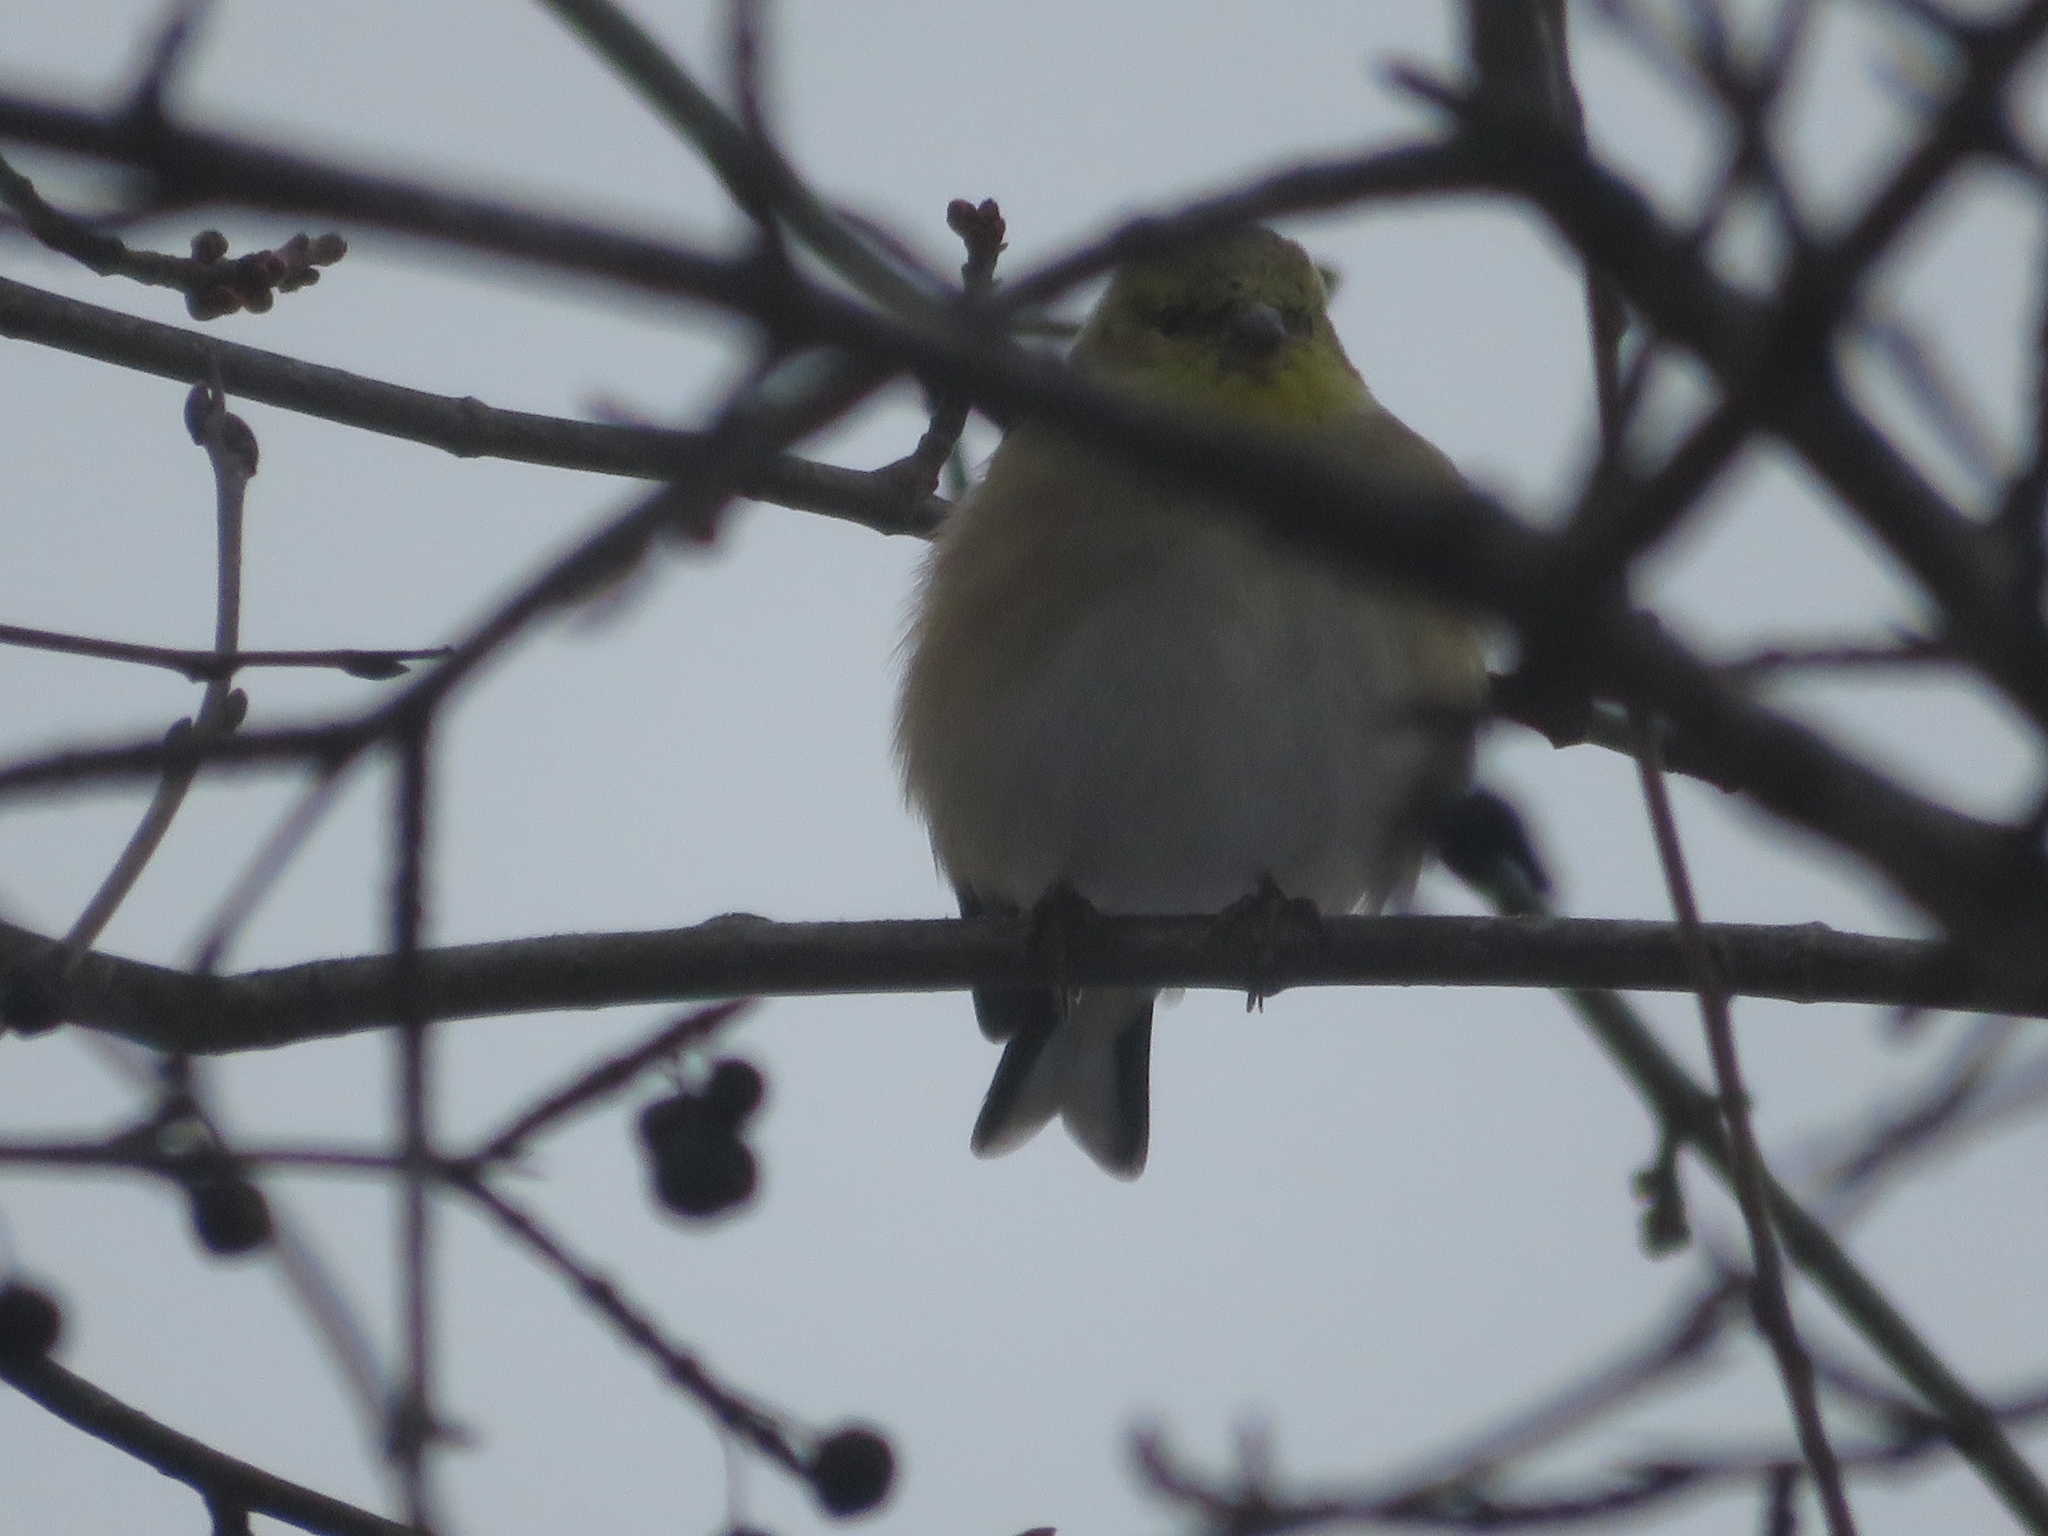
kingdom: Animalia
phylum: Chordata
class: Aves
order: Passeriformes
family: Fringillidae
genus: Spinus
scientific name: Spinus tristis
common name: American goldfinch
